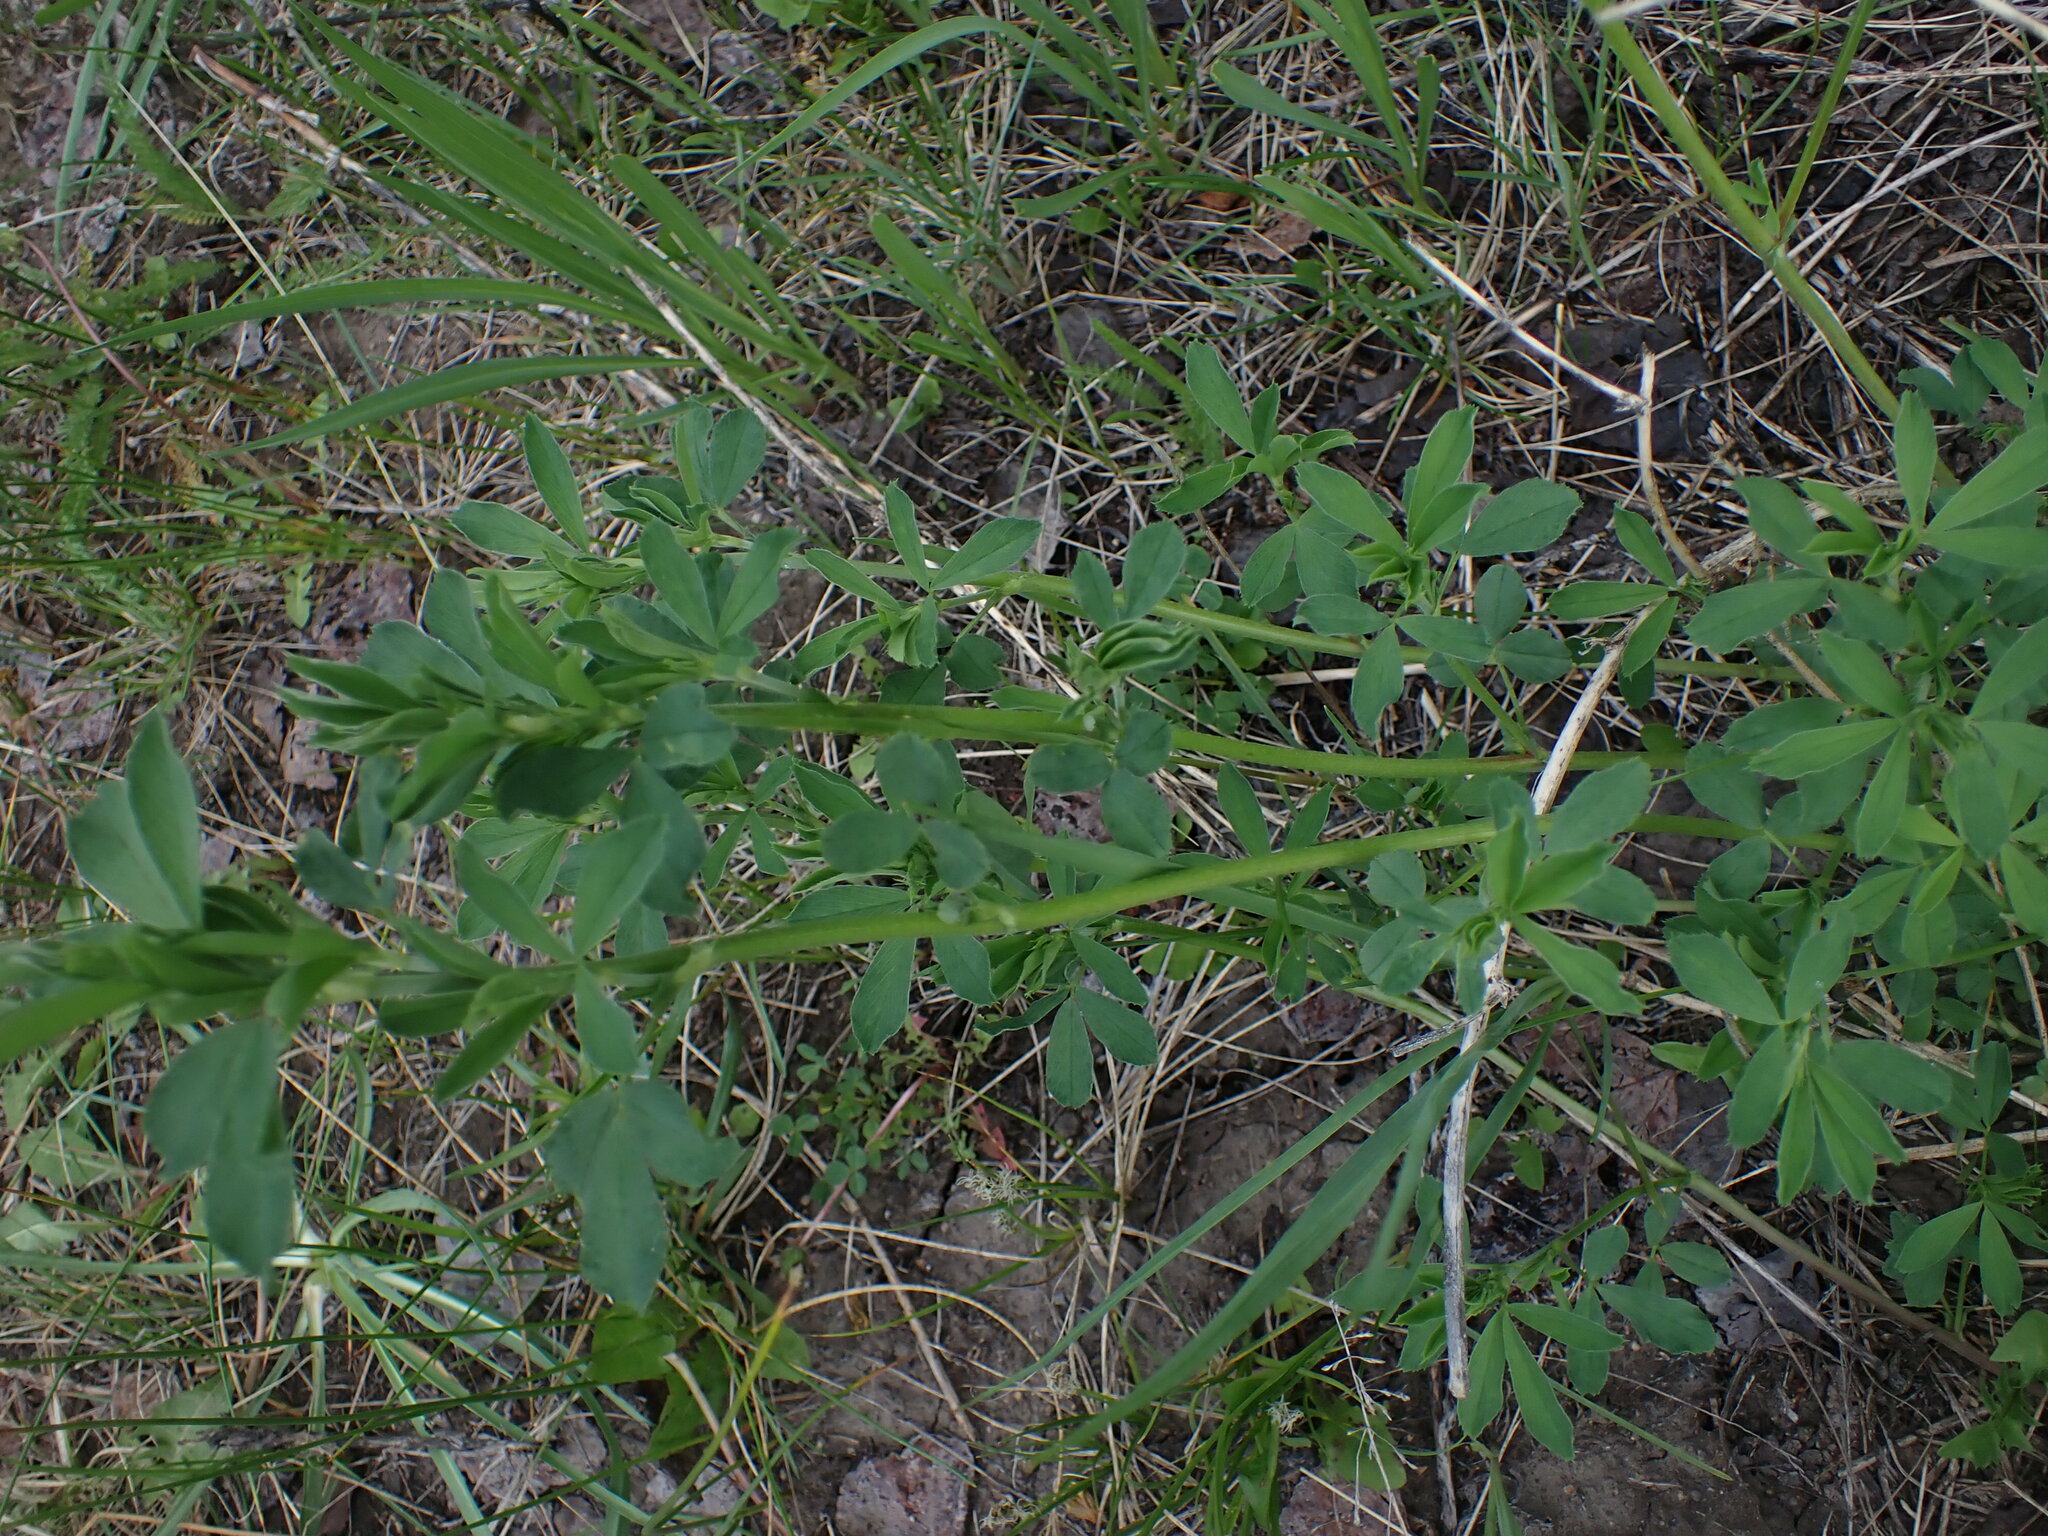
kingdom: Plantae
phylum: Tracheophyta
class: Magnoliopsida
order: Fabales
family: Fabaceae
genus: Medicago
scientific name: Medicago sativa
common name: Alfalfa
